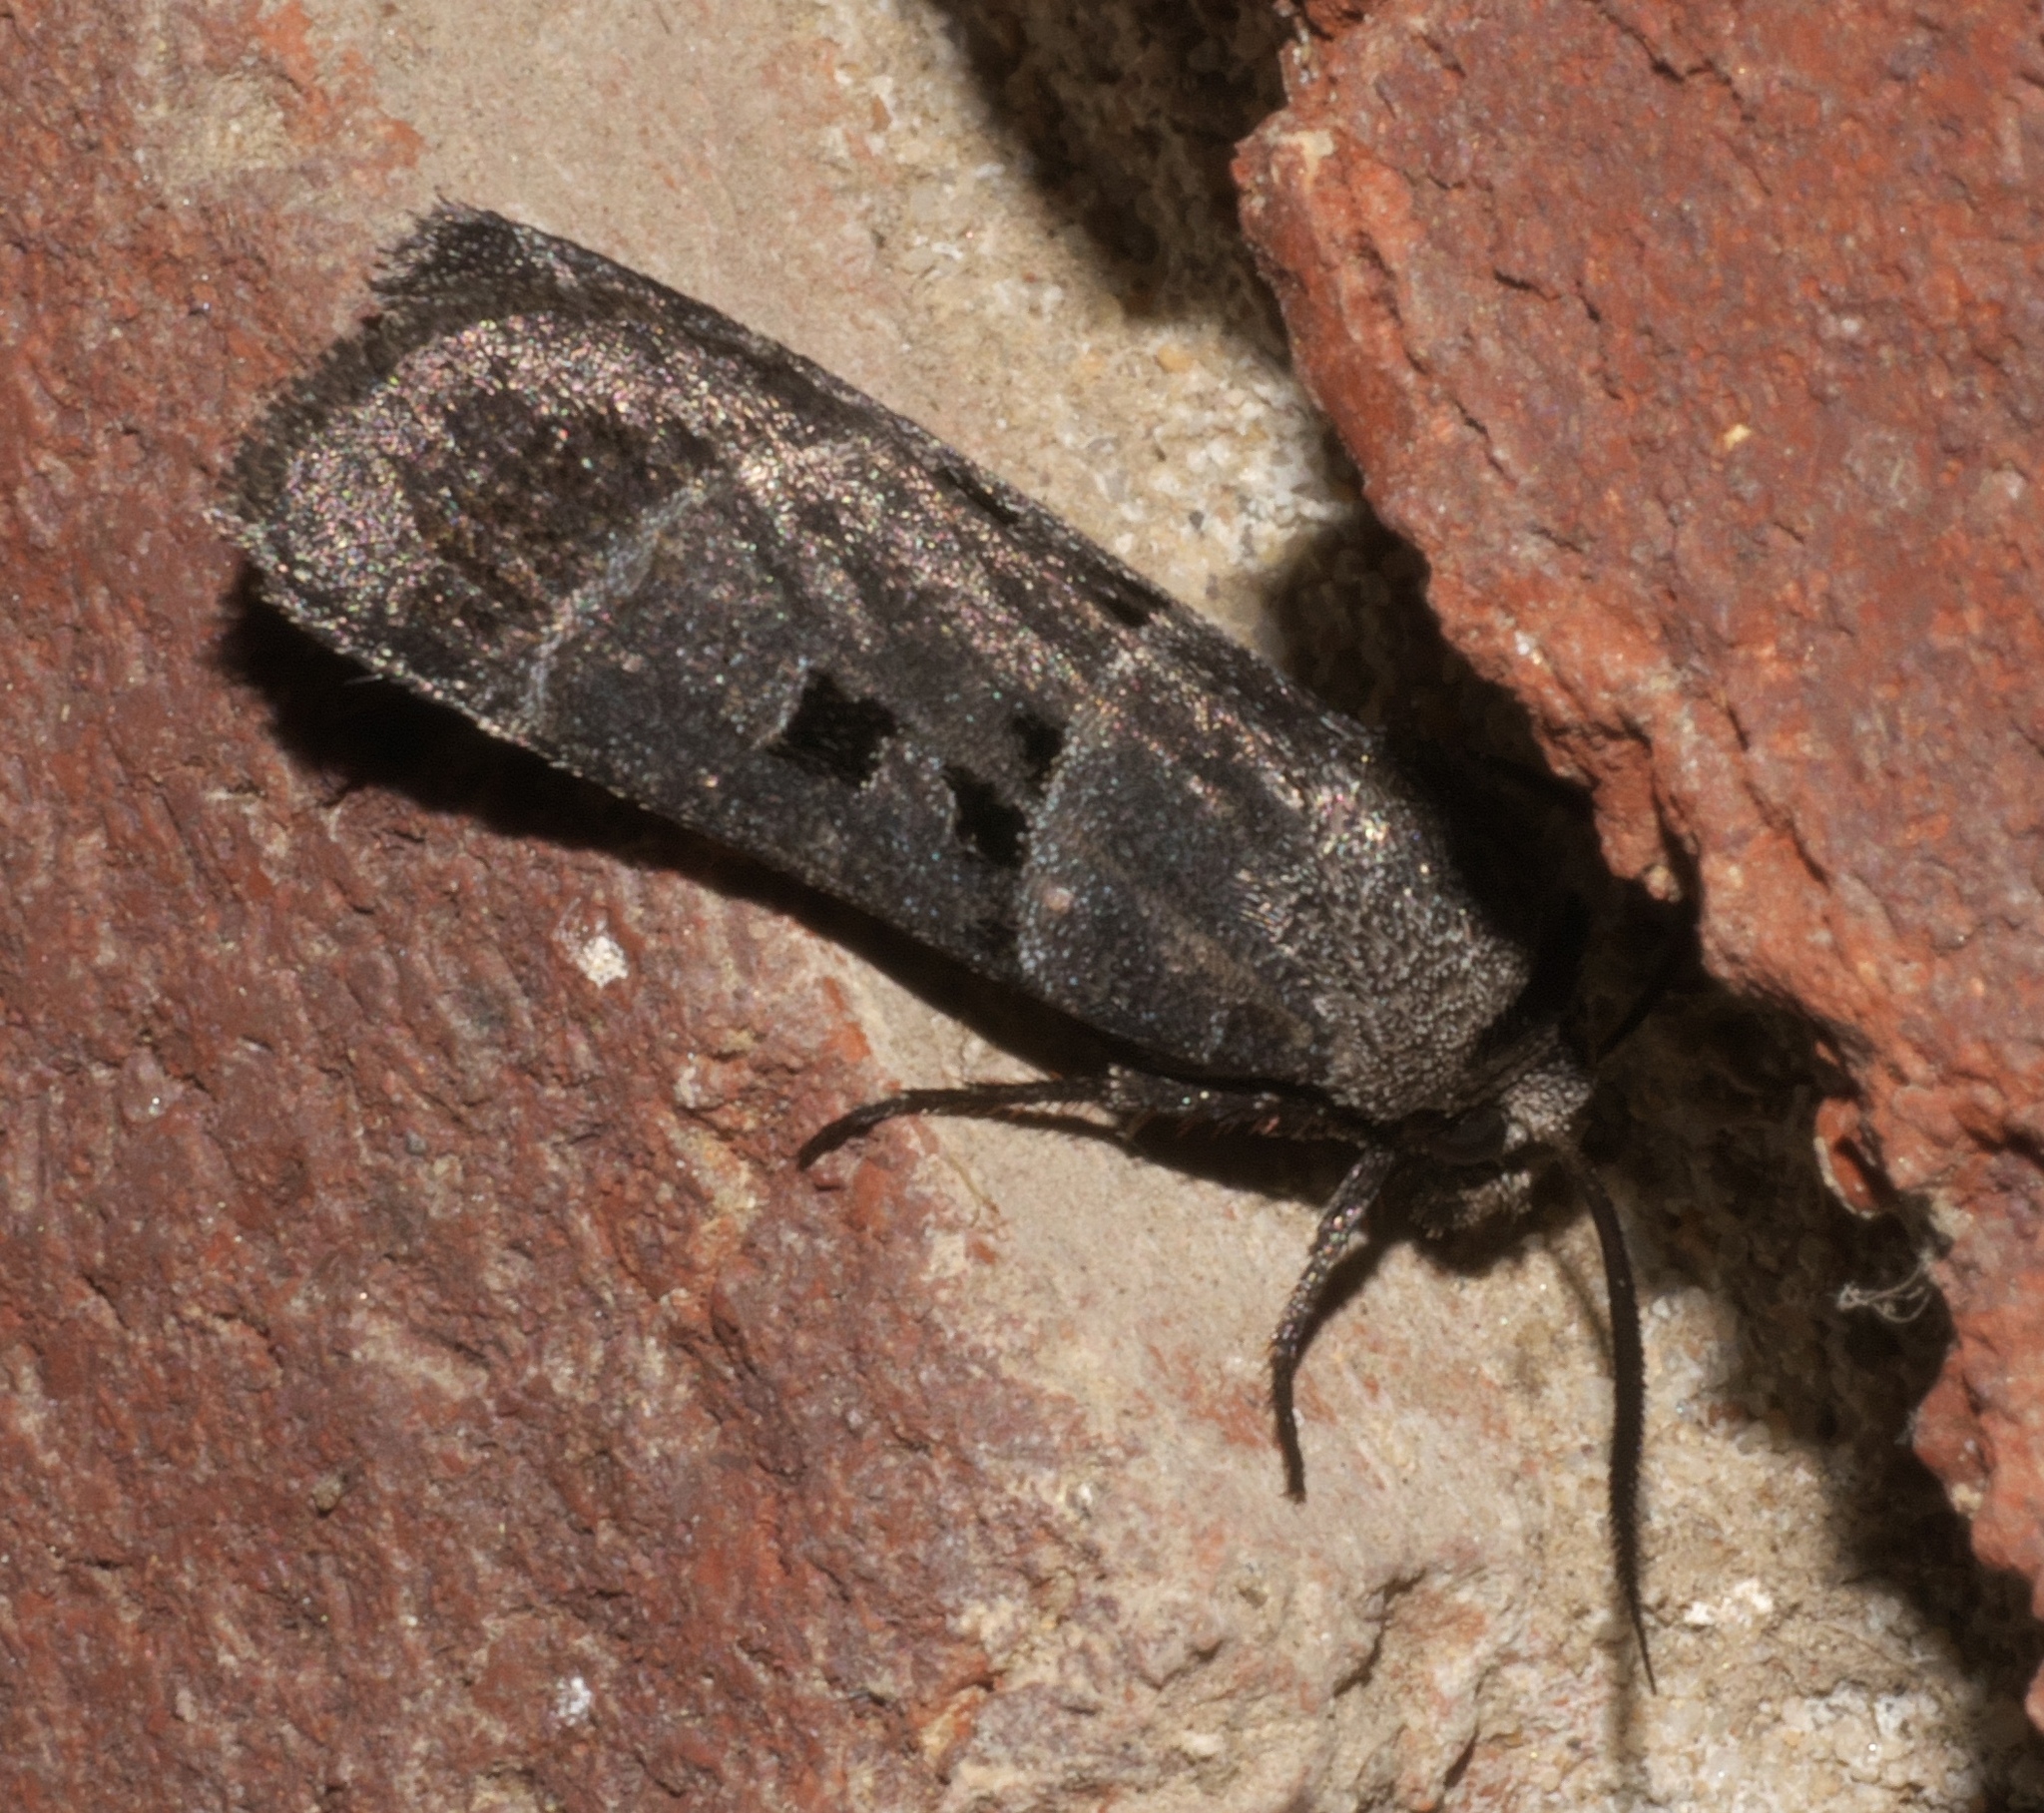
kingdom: Animalia
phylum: Arthropoda
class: Insecta
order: Lepidoptera
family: Noctuidae
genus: Agnorisma
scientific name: Agnorisma bollii
